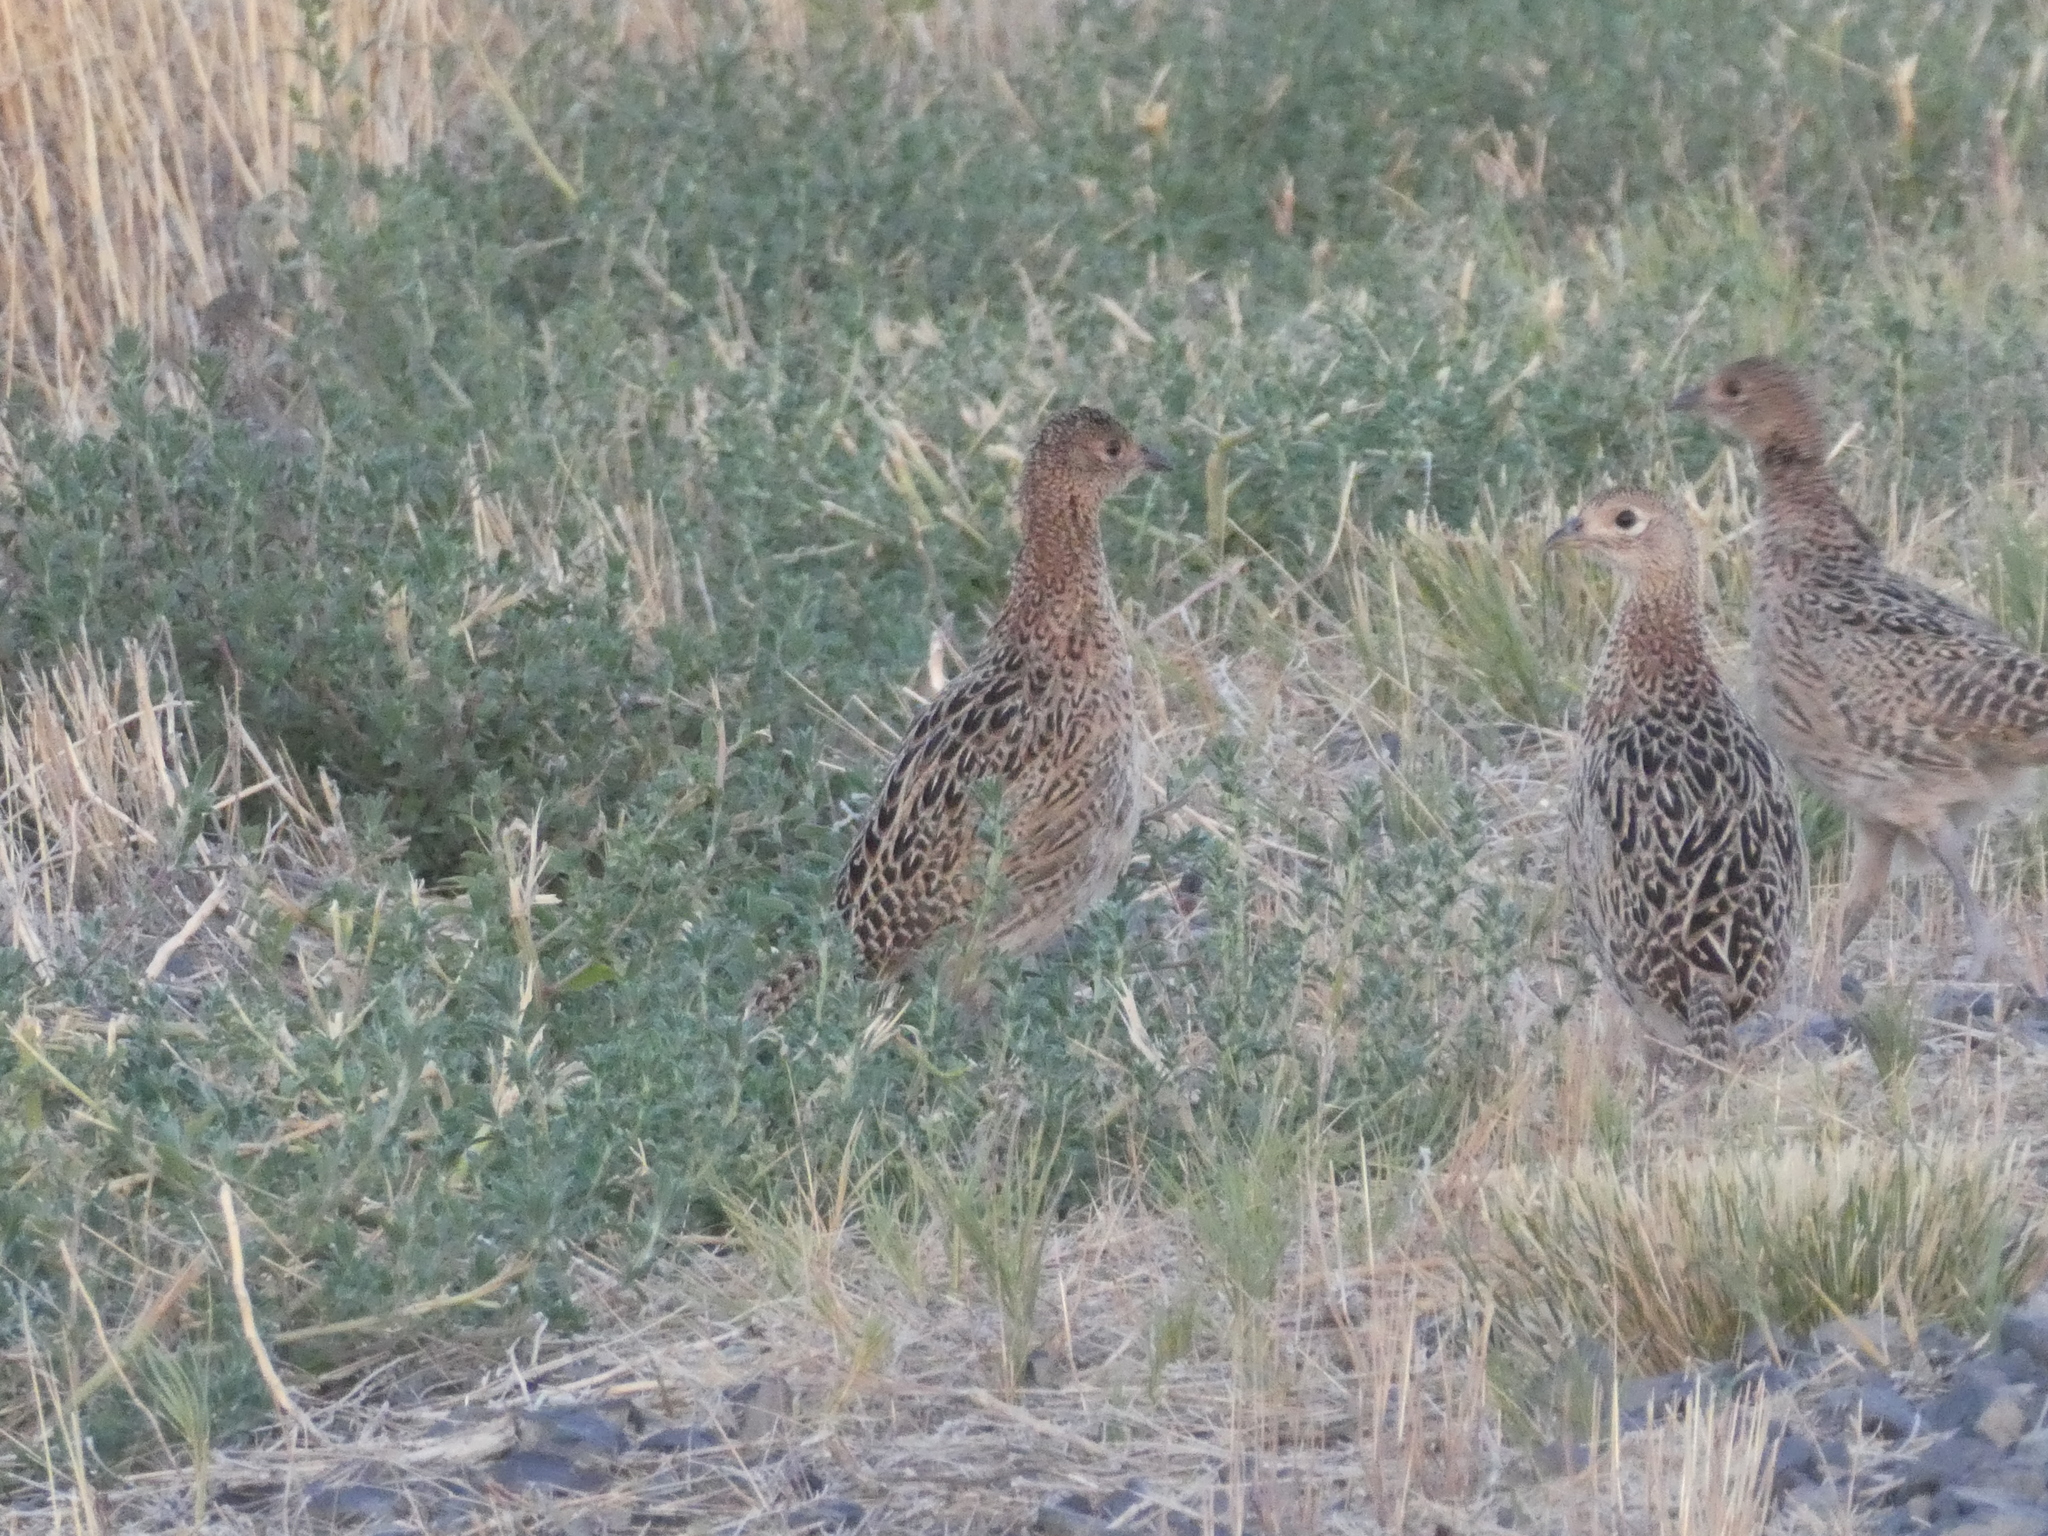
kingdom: Animalia
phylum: Chordata
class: Aves
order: Galliformes
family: Phasianidae
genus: Phasianus
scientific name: Phasianus colchicus
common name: Common pheasant
